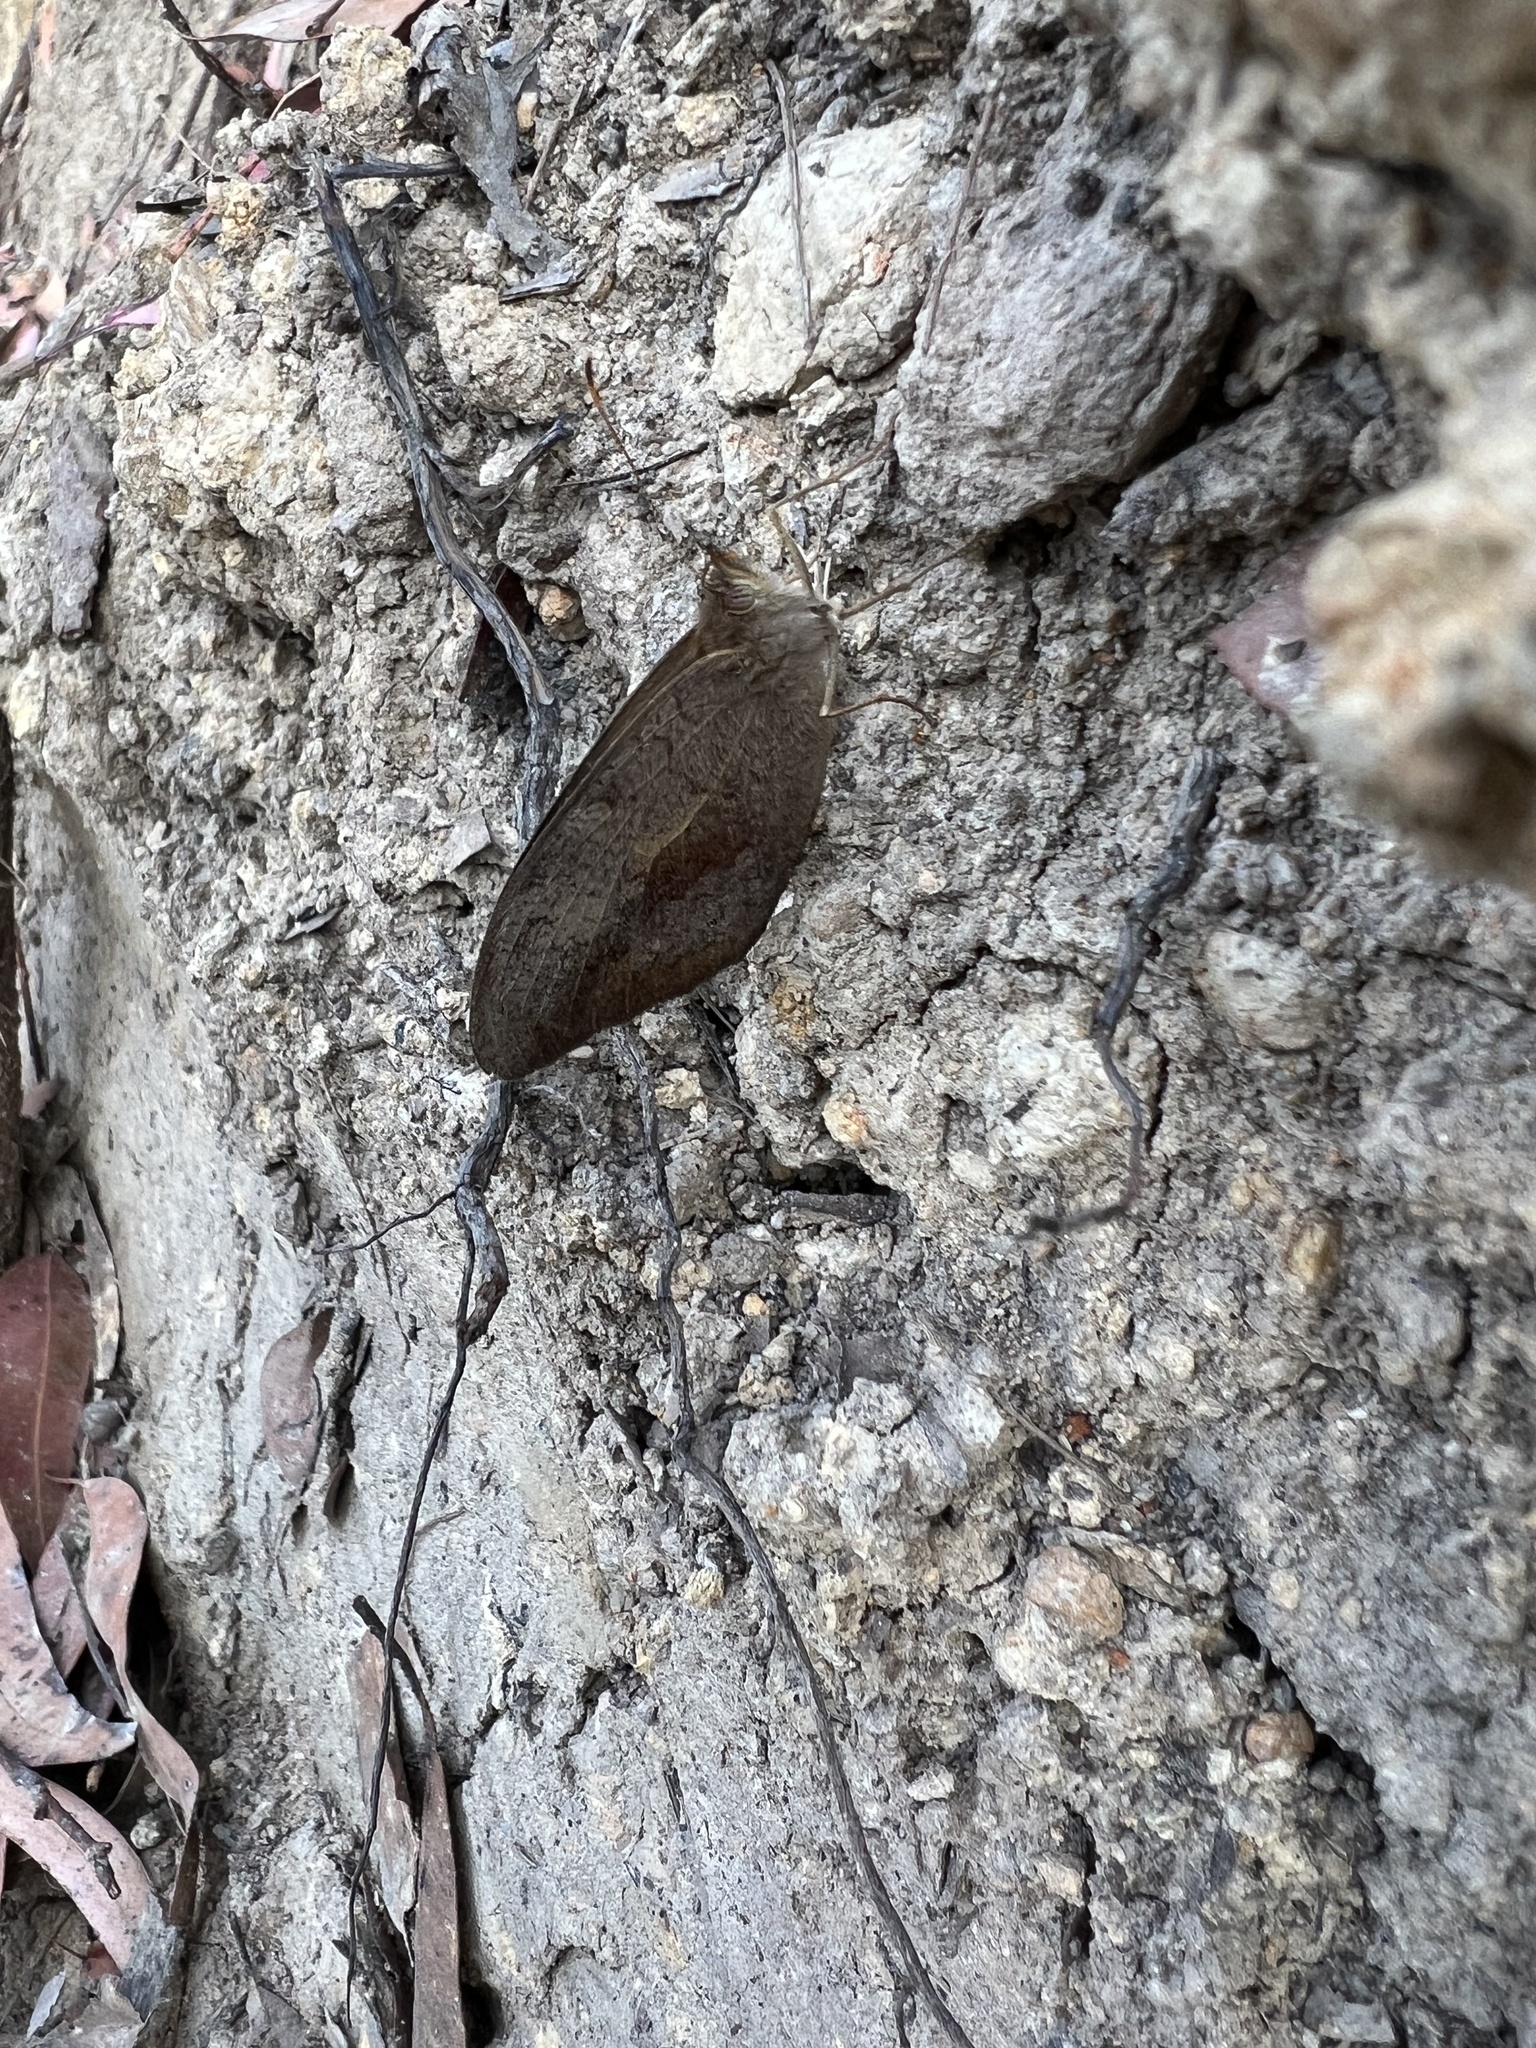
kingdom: Animalia
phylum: Arthropoda
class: Insecta
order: Lepidoptera
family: Nymphalidae
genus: Heteronympha
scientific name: Heteronympha merope
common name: Common brown
